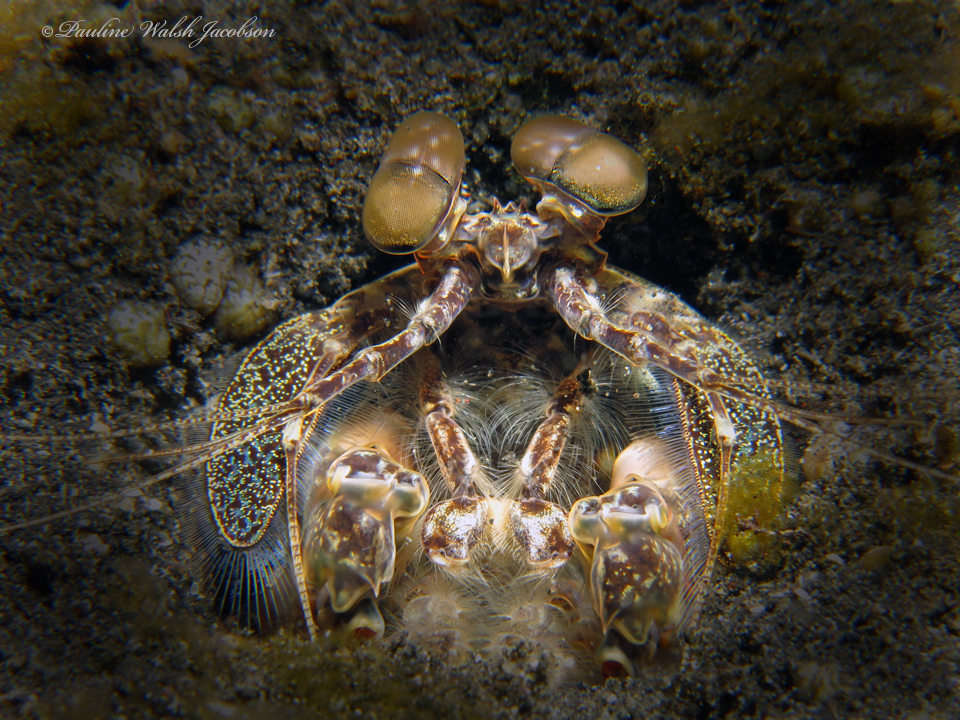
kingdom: Animalia
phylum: Arthropoda
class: Malacostraca
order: Stomatopoda
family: Lysiosquillidae
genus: Lysiosquilla
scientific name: Lysiosquilla maculata
